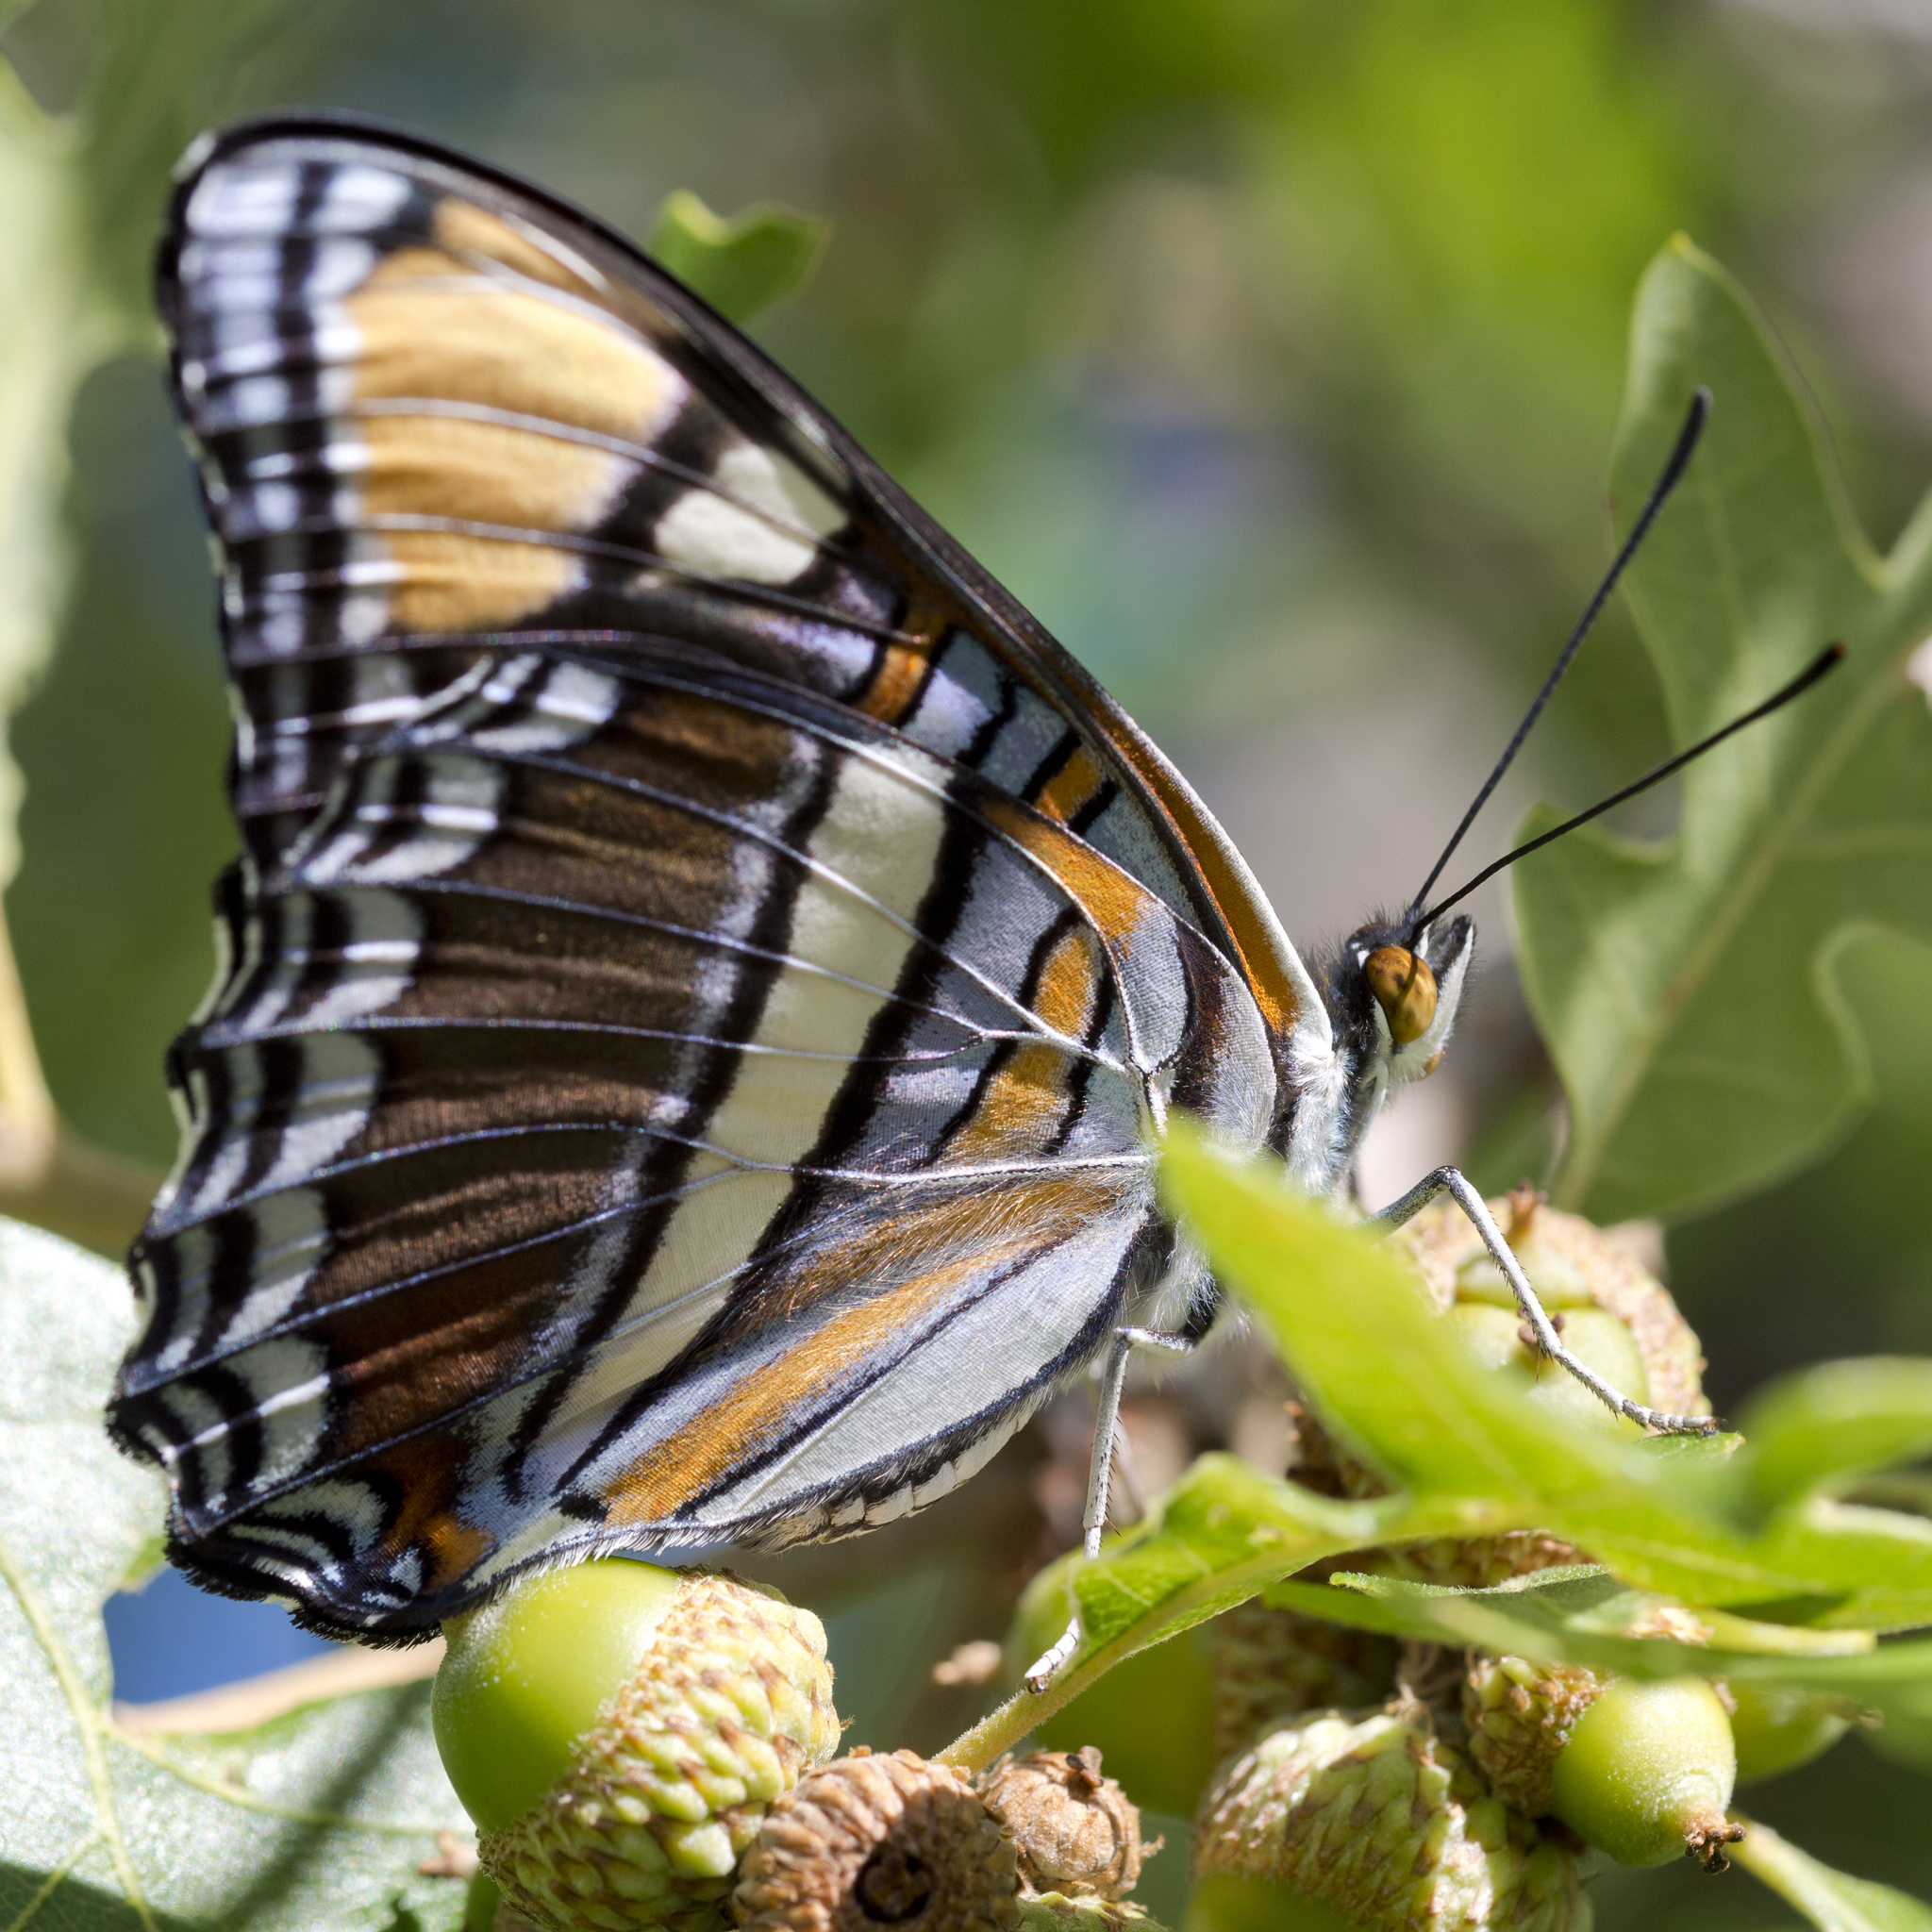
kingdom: Animalia
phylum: Arthropoda
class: Insecta
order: Lepidoptera
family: Nymphalidae
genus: Limenitis
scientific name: Limenitis bredowii
